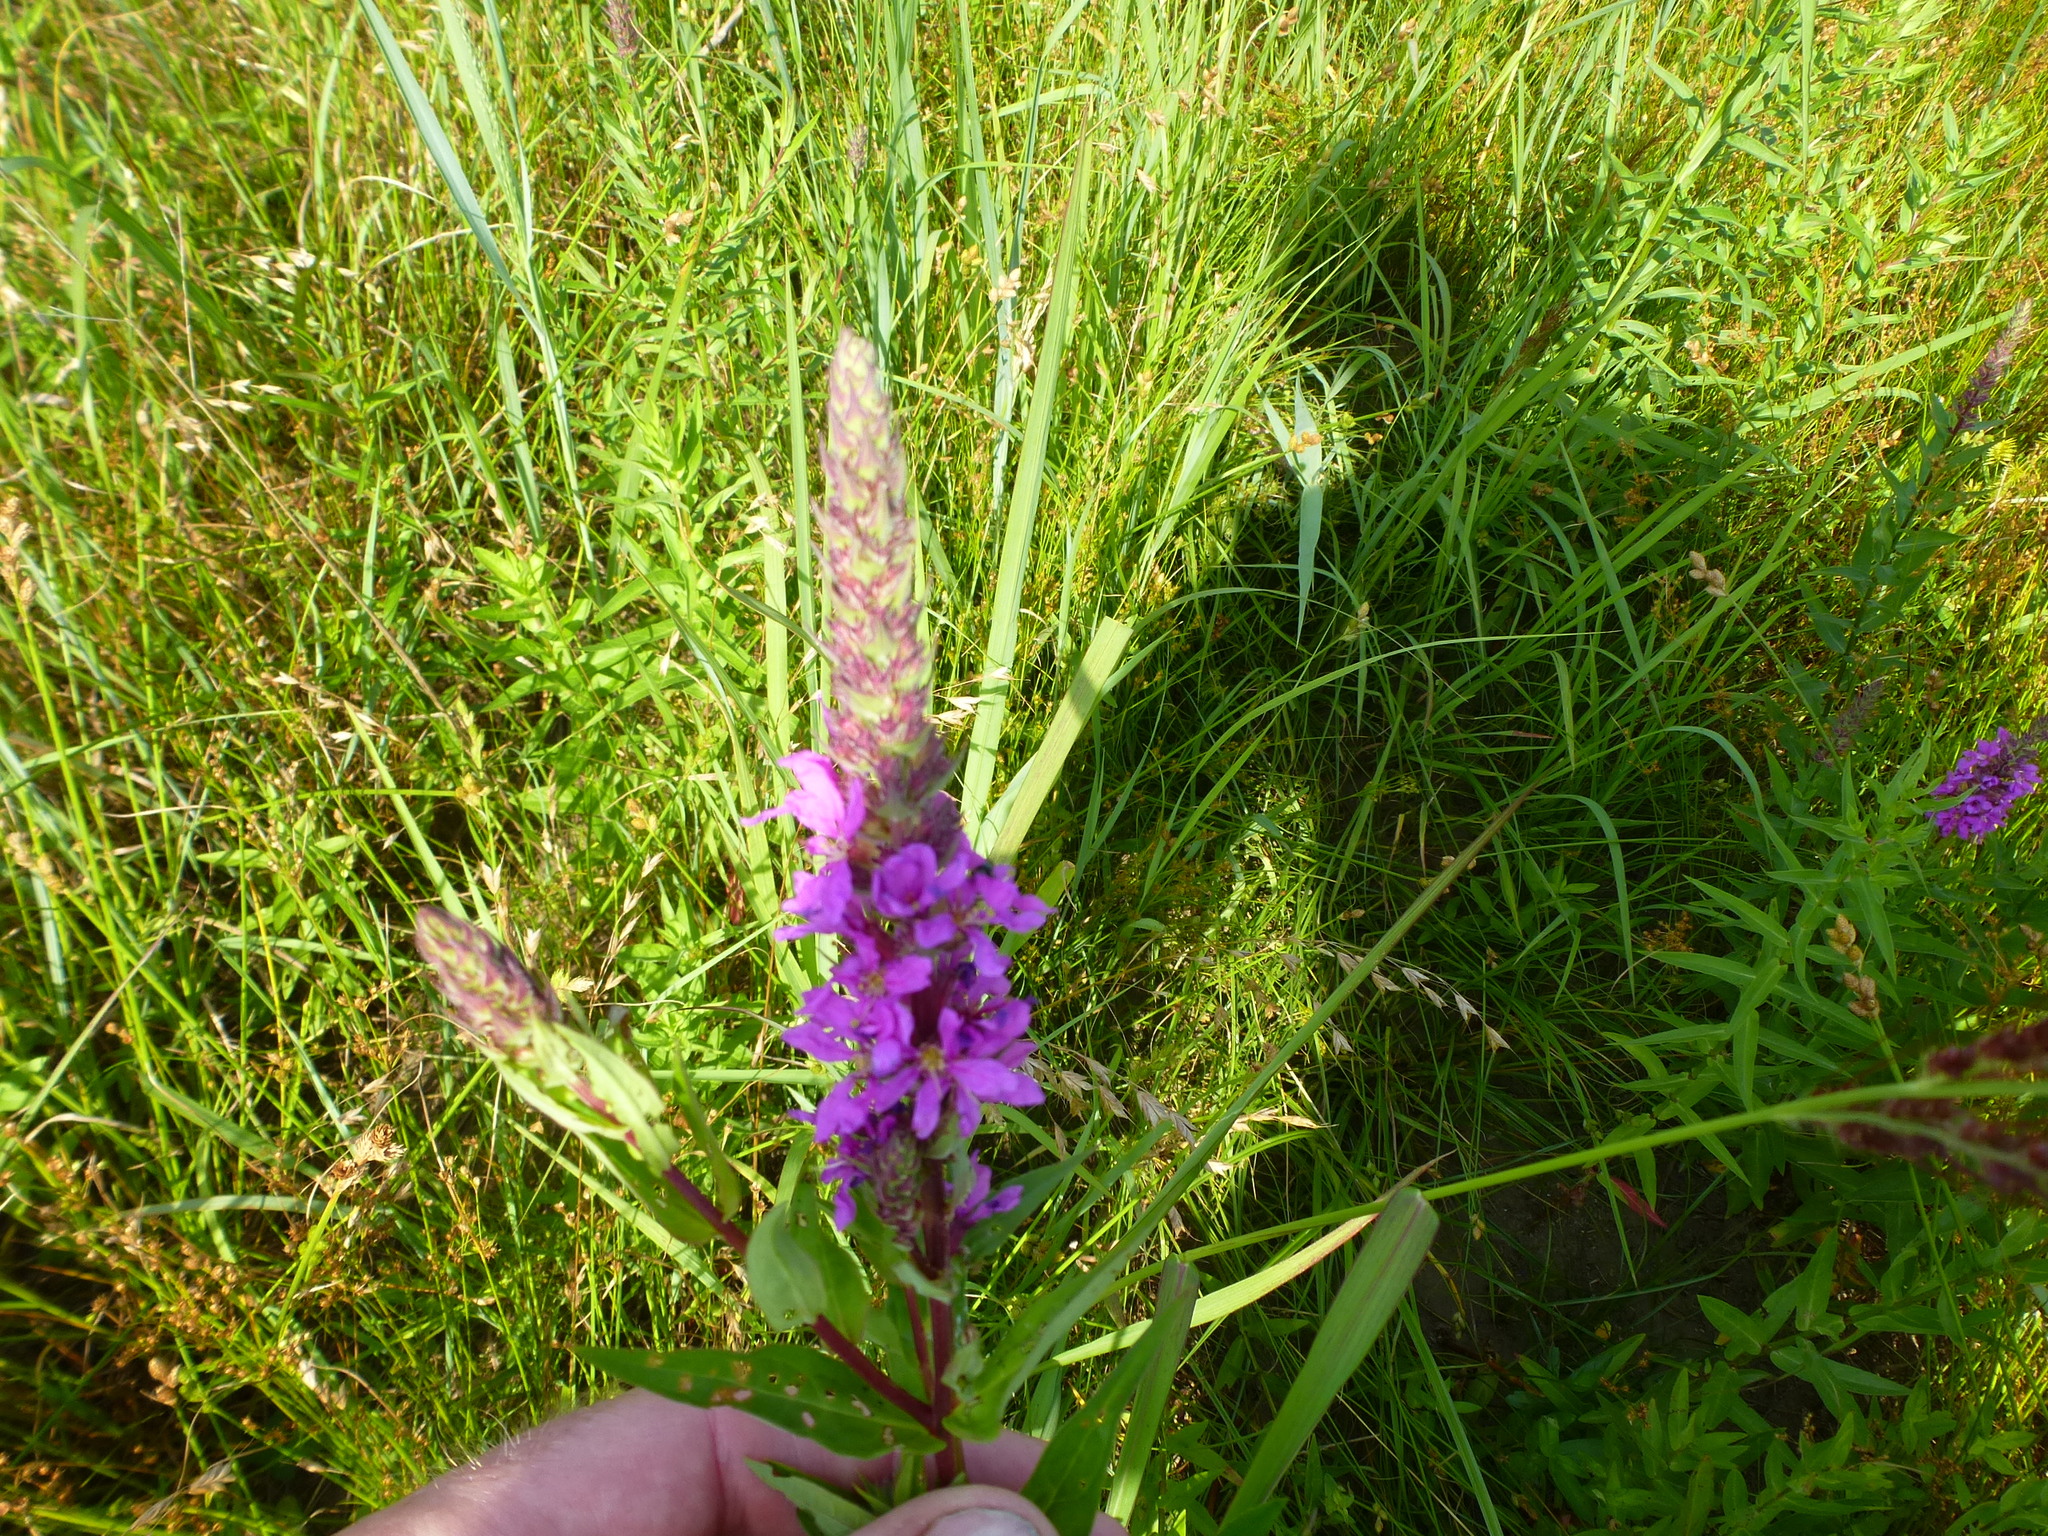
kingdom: Plantae
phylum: Tracheophyta
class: Magnoliopsida
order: Myrtales
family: Lythraceae
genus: Lythrum
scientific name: Lythrum salicaria
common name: Purple loosestrife
